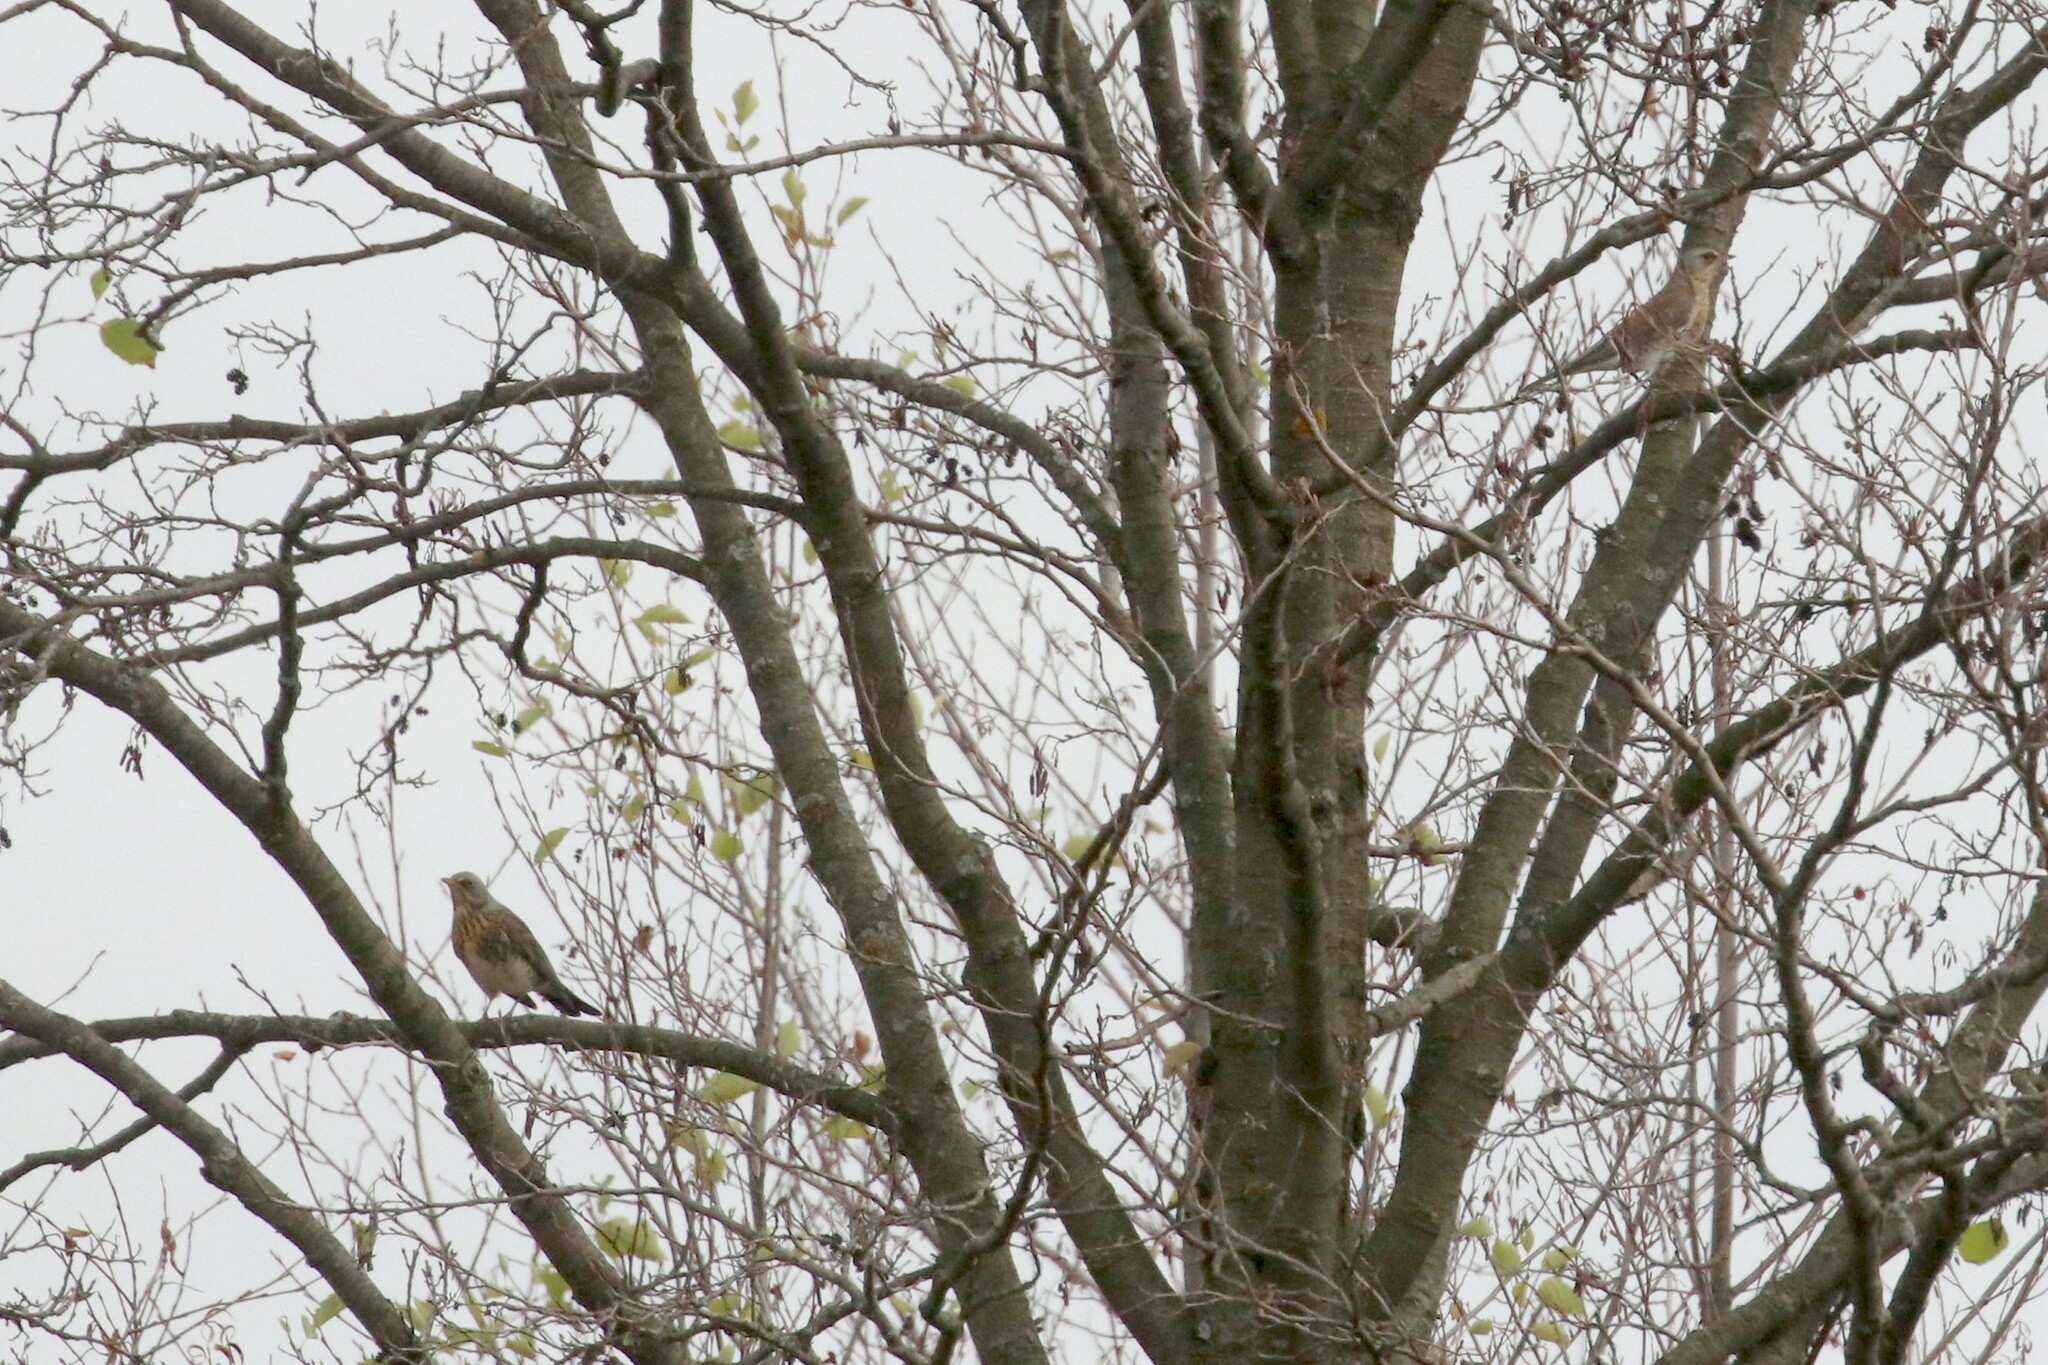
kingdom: Animalia
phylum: Chordata
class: Aves
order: Passeriformes
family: Turdidae
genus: Turdus
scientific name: Turdus pilaris
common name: Fieldfare
